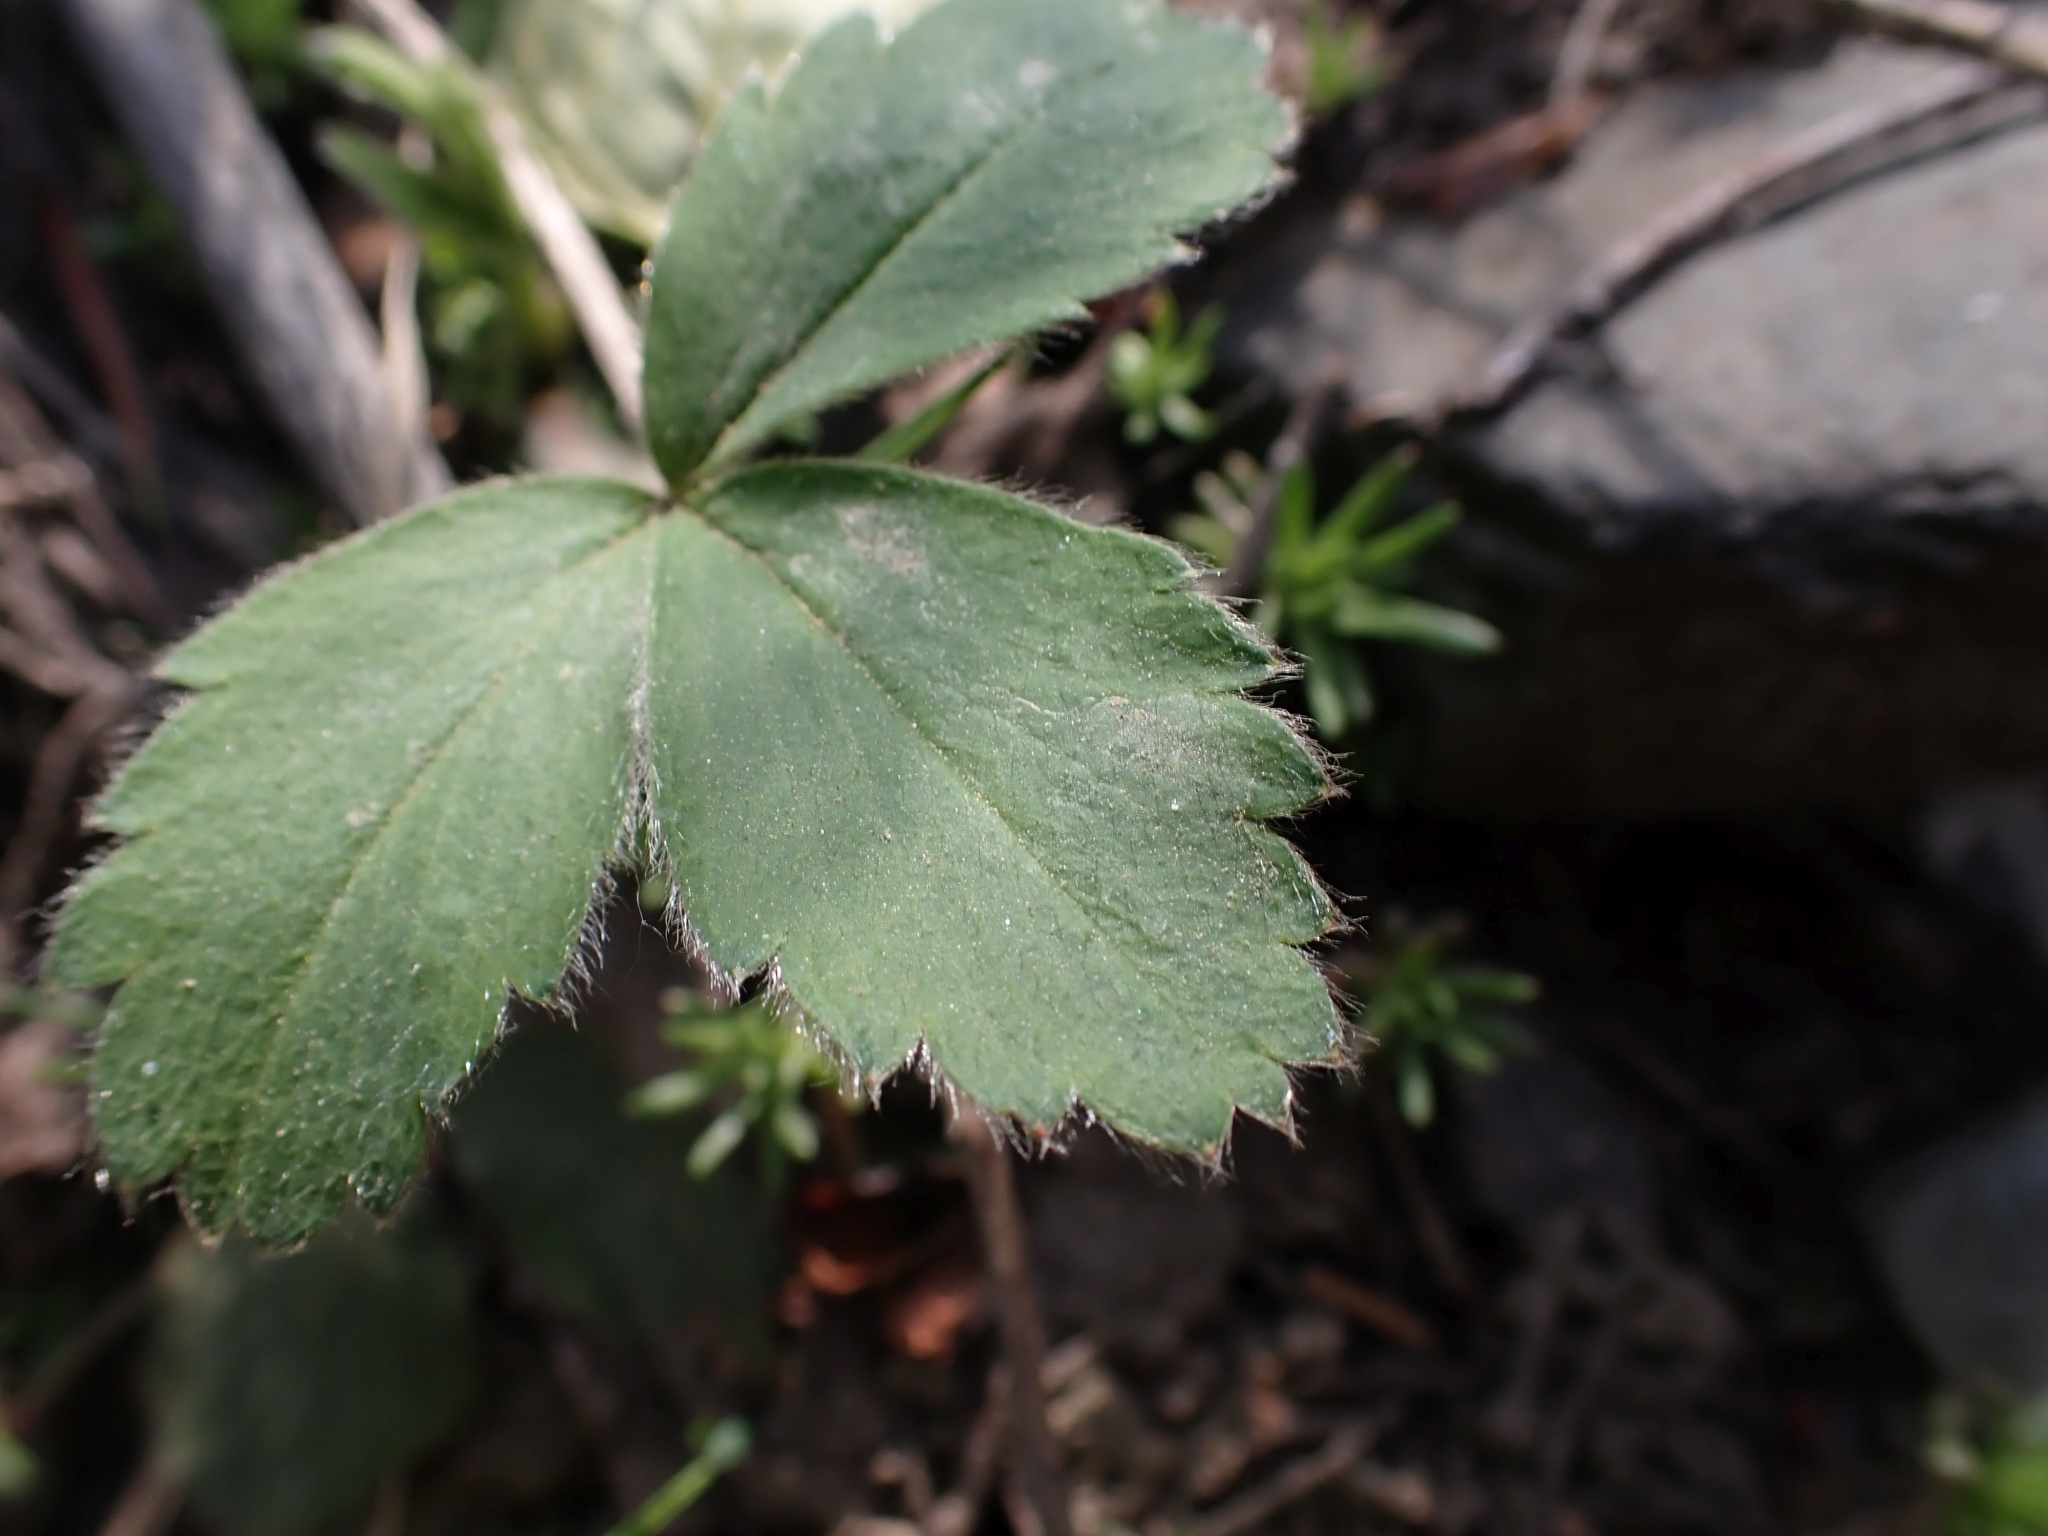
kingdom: Plantae
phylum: Tracheophyta
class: Magnoliopsida
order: Rosales
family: Rosaceae
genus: Fragaria
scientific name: Fragaria virginiana
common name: Thickleaved wild strawberry
